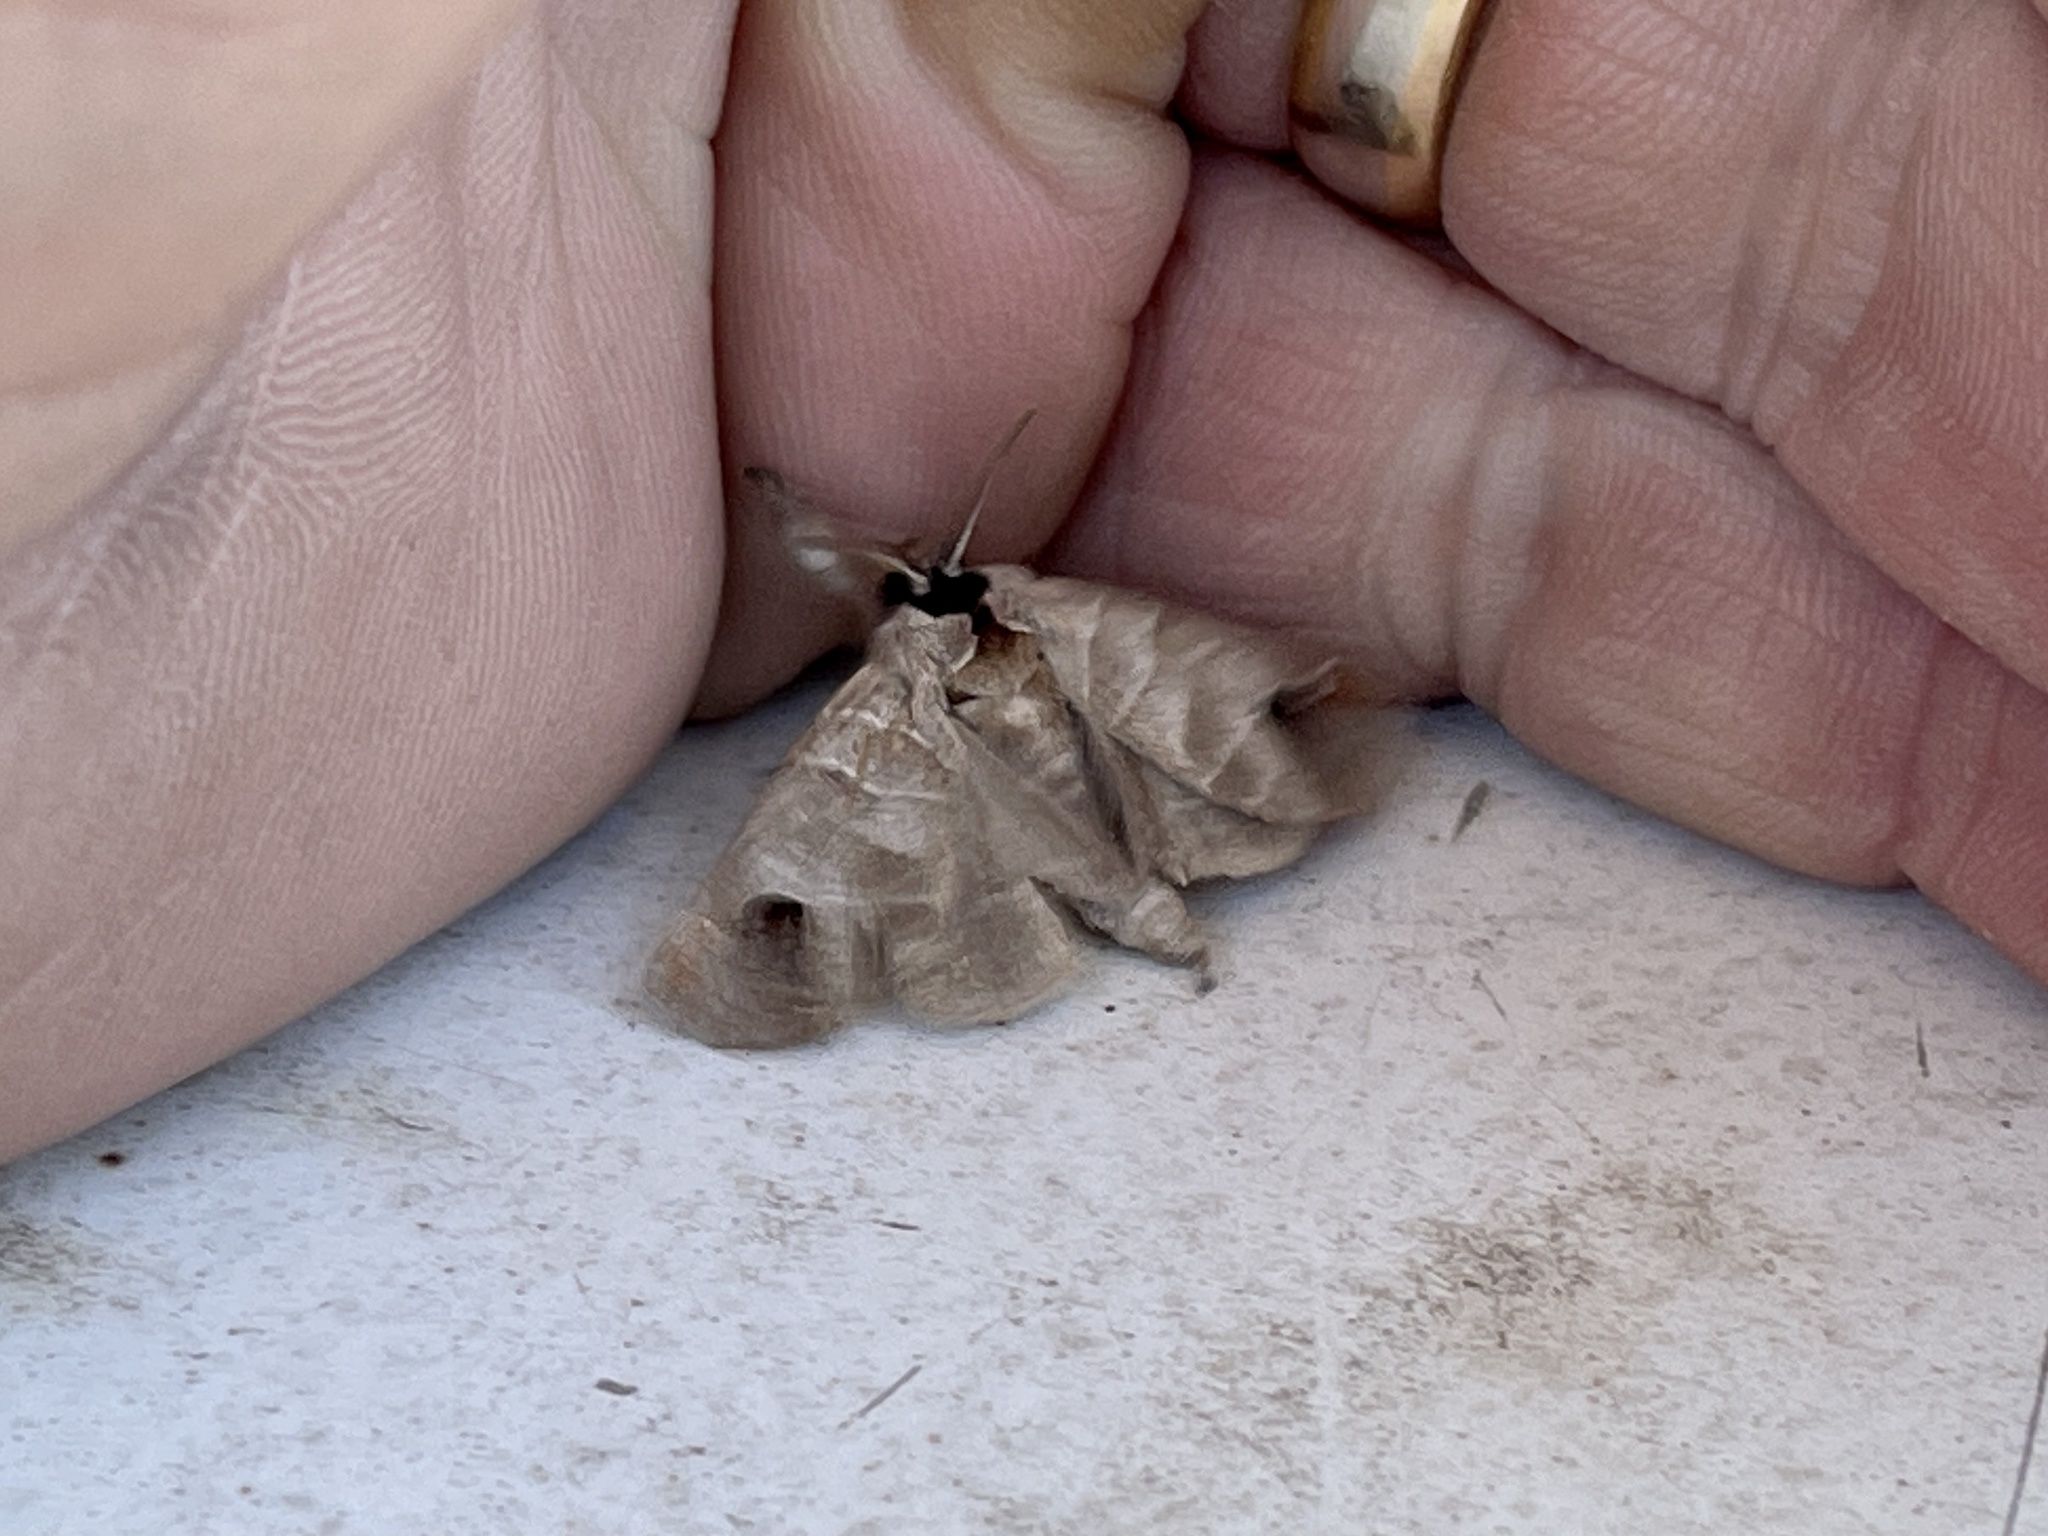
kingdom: Animalia
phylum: Arthropoda
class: Insecta
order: Lepidoptera
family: Notodontidae
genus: Clostera
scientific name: Clostera albosigma
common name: Sigmoid prominent
